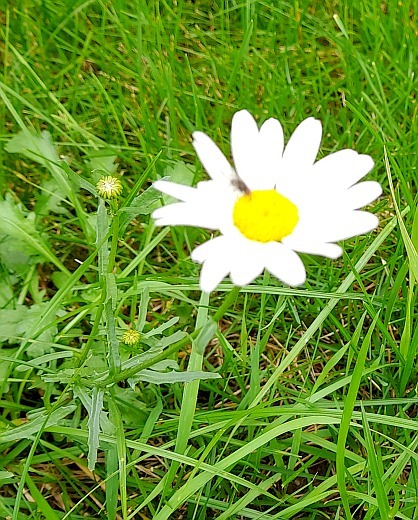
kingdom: Plantae
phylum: Tracheophyta
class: Magnoliopsida
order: Asterales
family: Asteraceae
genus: Leucanthemum
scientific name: Leucanthemum vulgare
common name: Oxeye daisy
